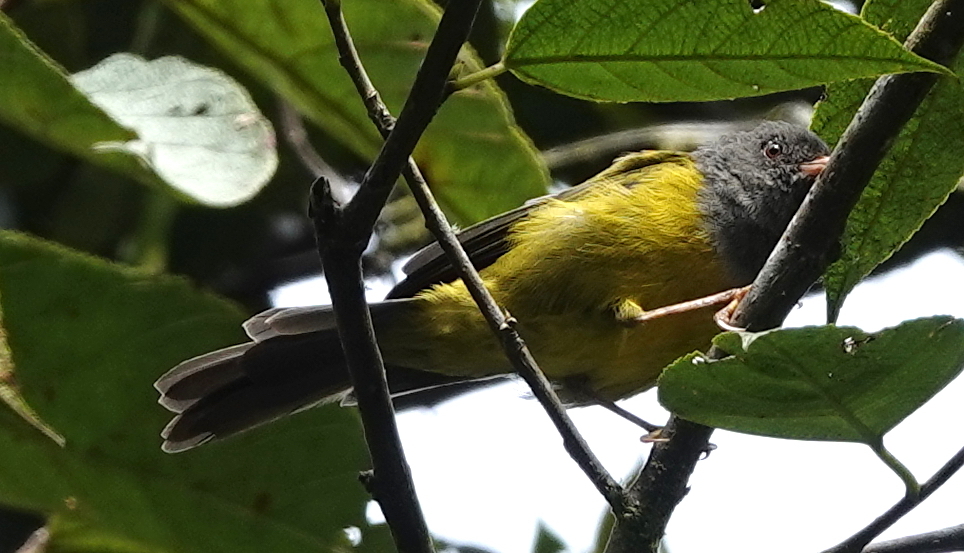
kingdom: Animalia
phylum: Chordata
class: Aves
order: Passeriformes
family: Thraupidae
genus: Cnemoscopus
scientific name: Cnemoscopus rubrirostris
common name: Grey-hooded bush tanager
